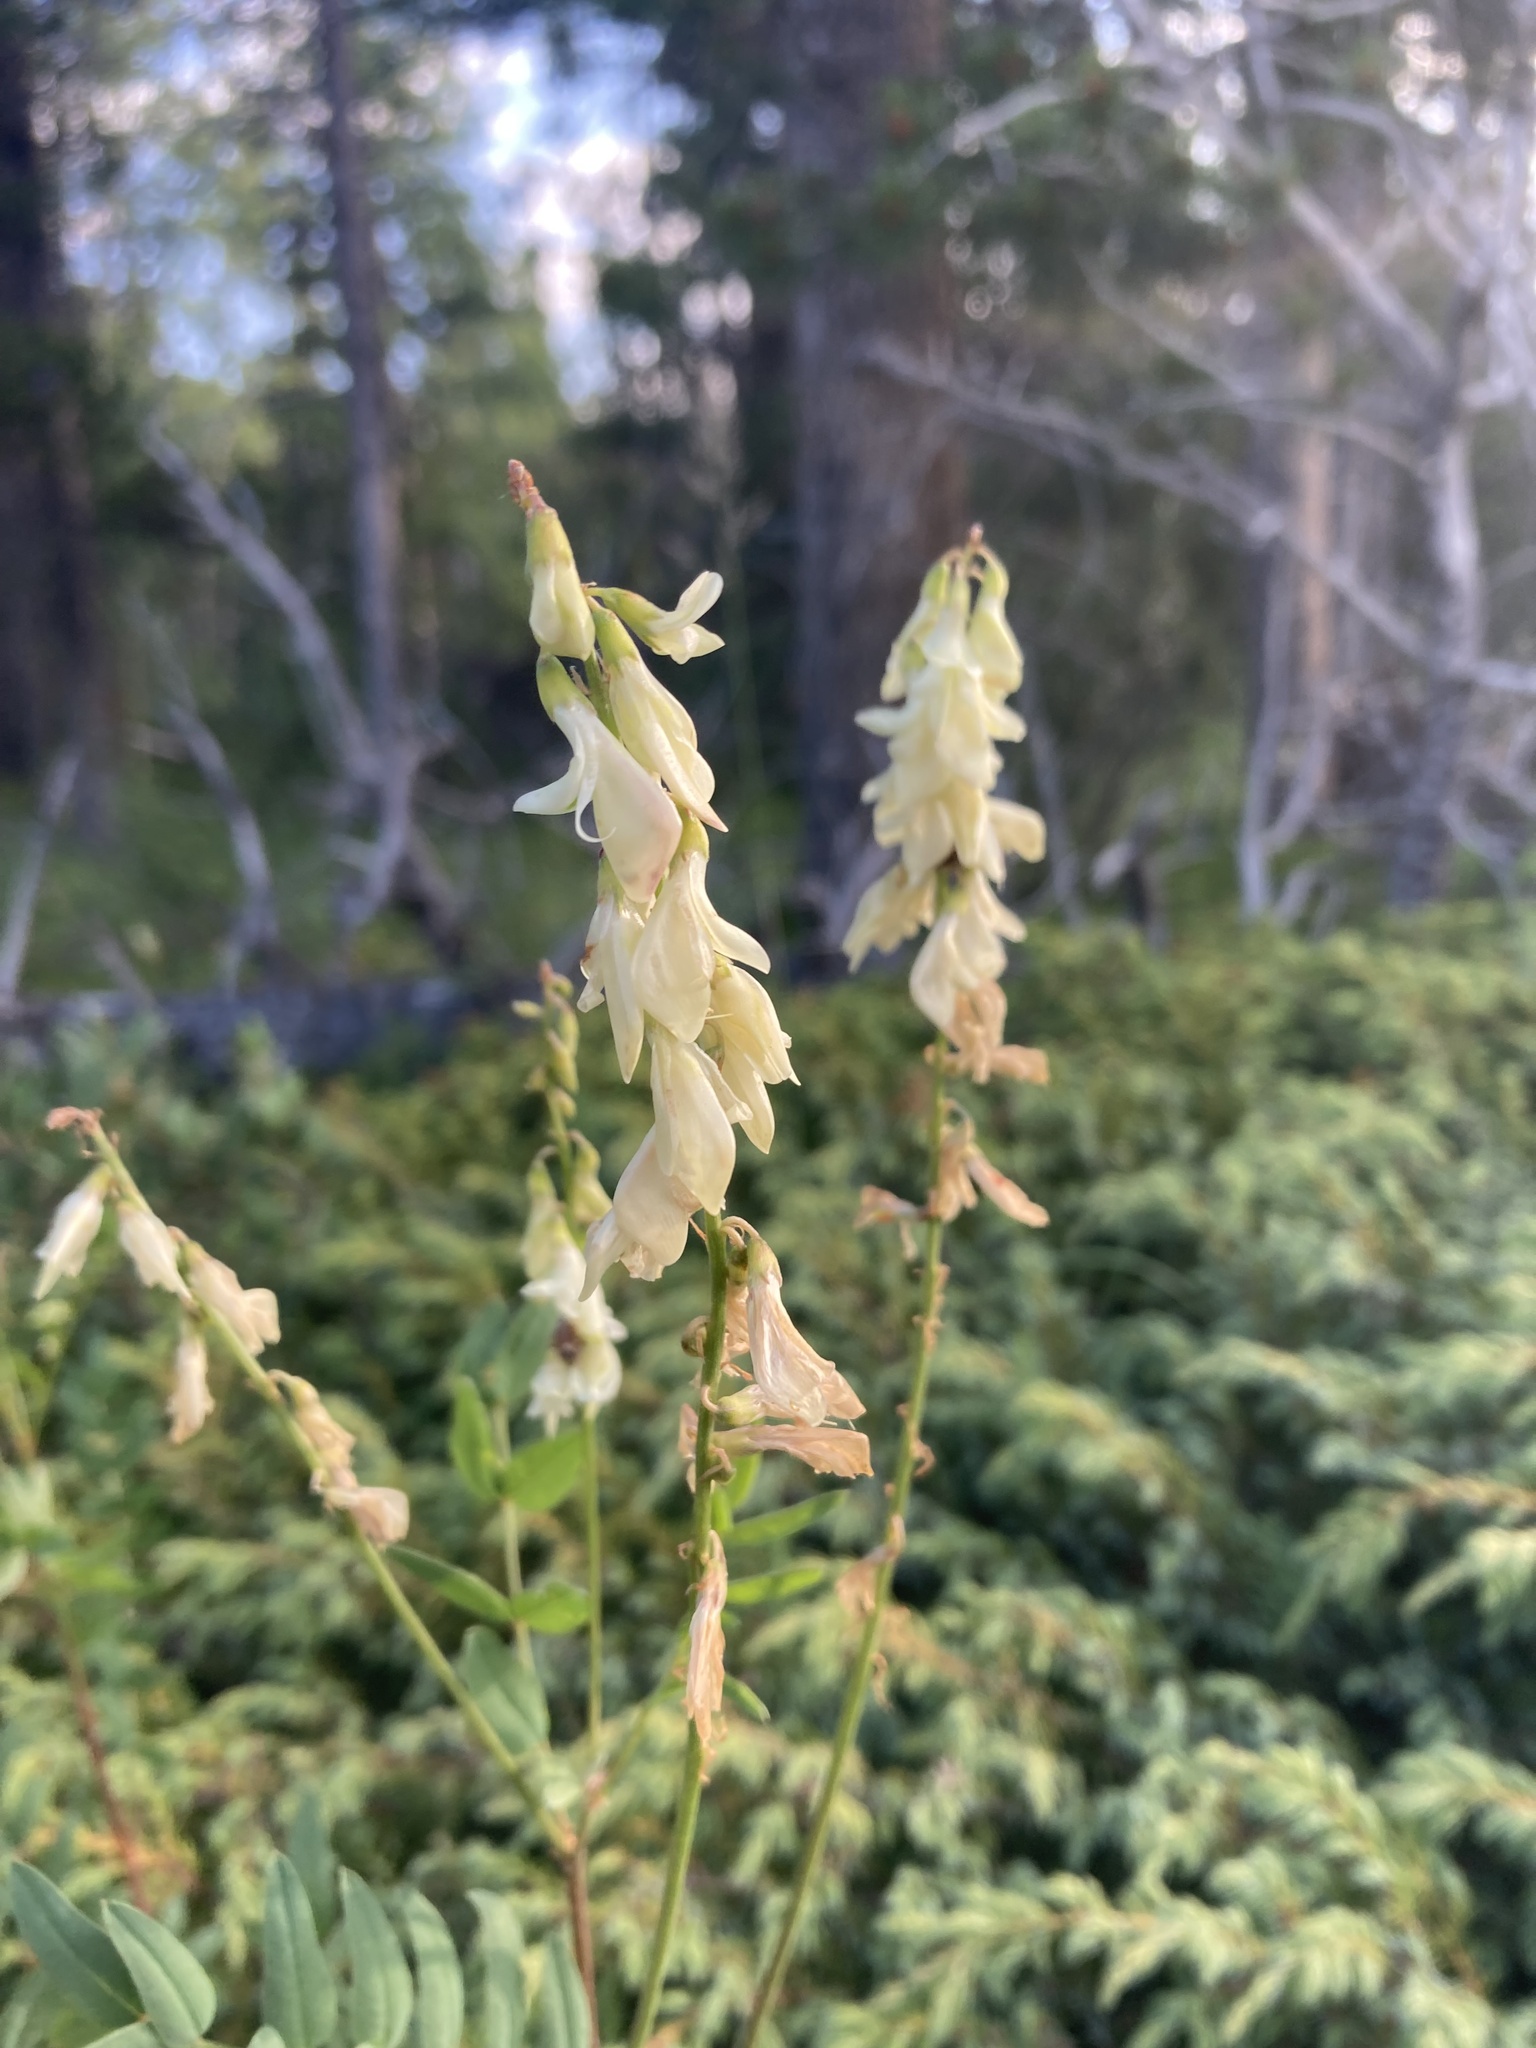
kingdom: Plantae
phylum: Tracheophyta
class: Magnoliopsida
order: Fabales
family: Fabaceae
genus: Hedysarum
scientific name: Hedysarum sulphurescens
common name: Sulphur hedysarum
